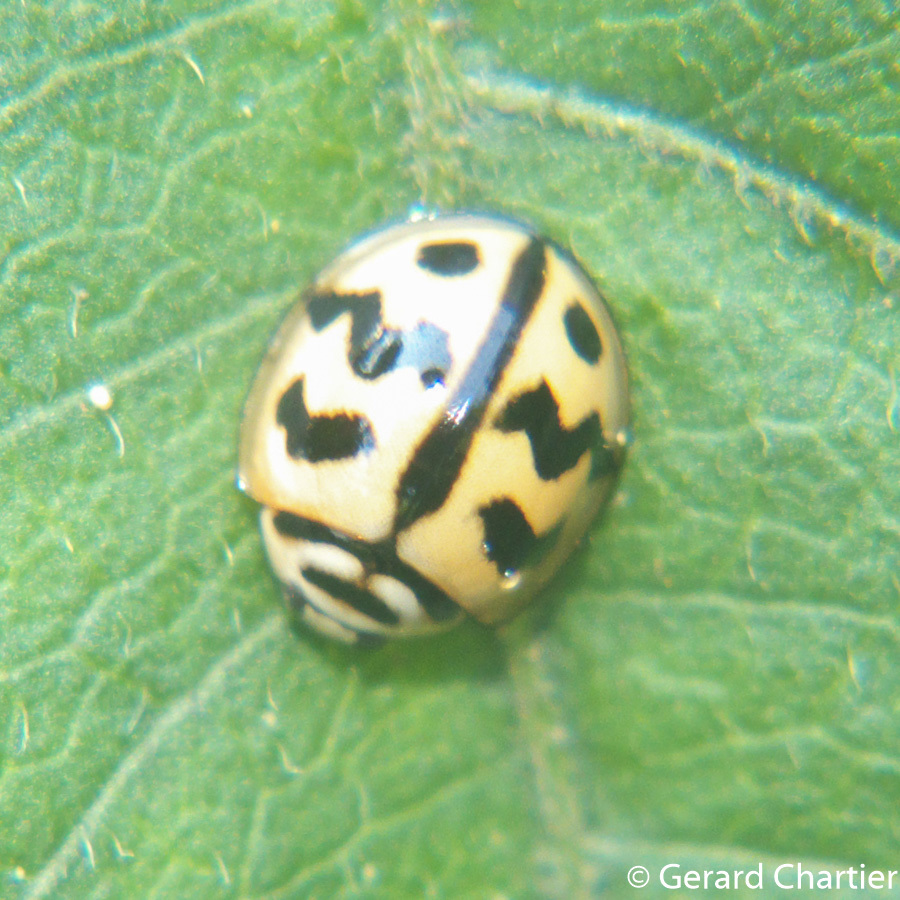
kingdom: Animalia
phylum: Arthropoda
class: Insecta
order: Coleoptera
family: Coccinellidae
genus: Cheilomenes
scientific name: Cheilomenes sexmaculata
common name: Ladybird beetle
